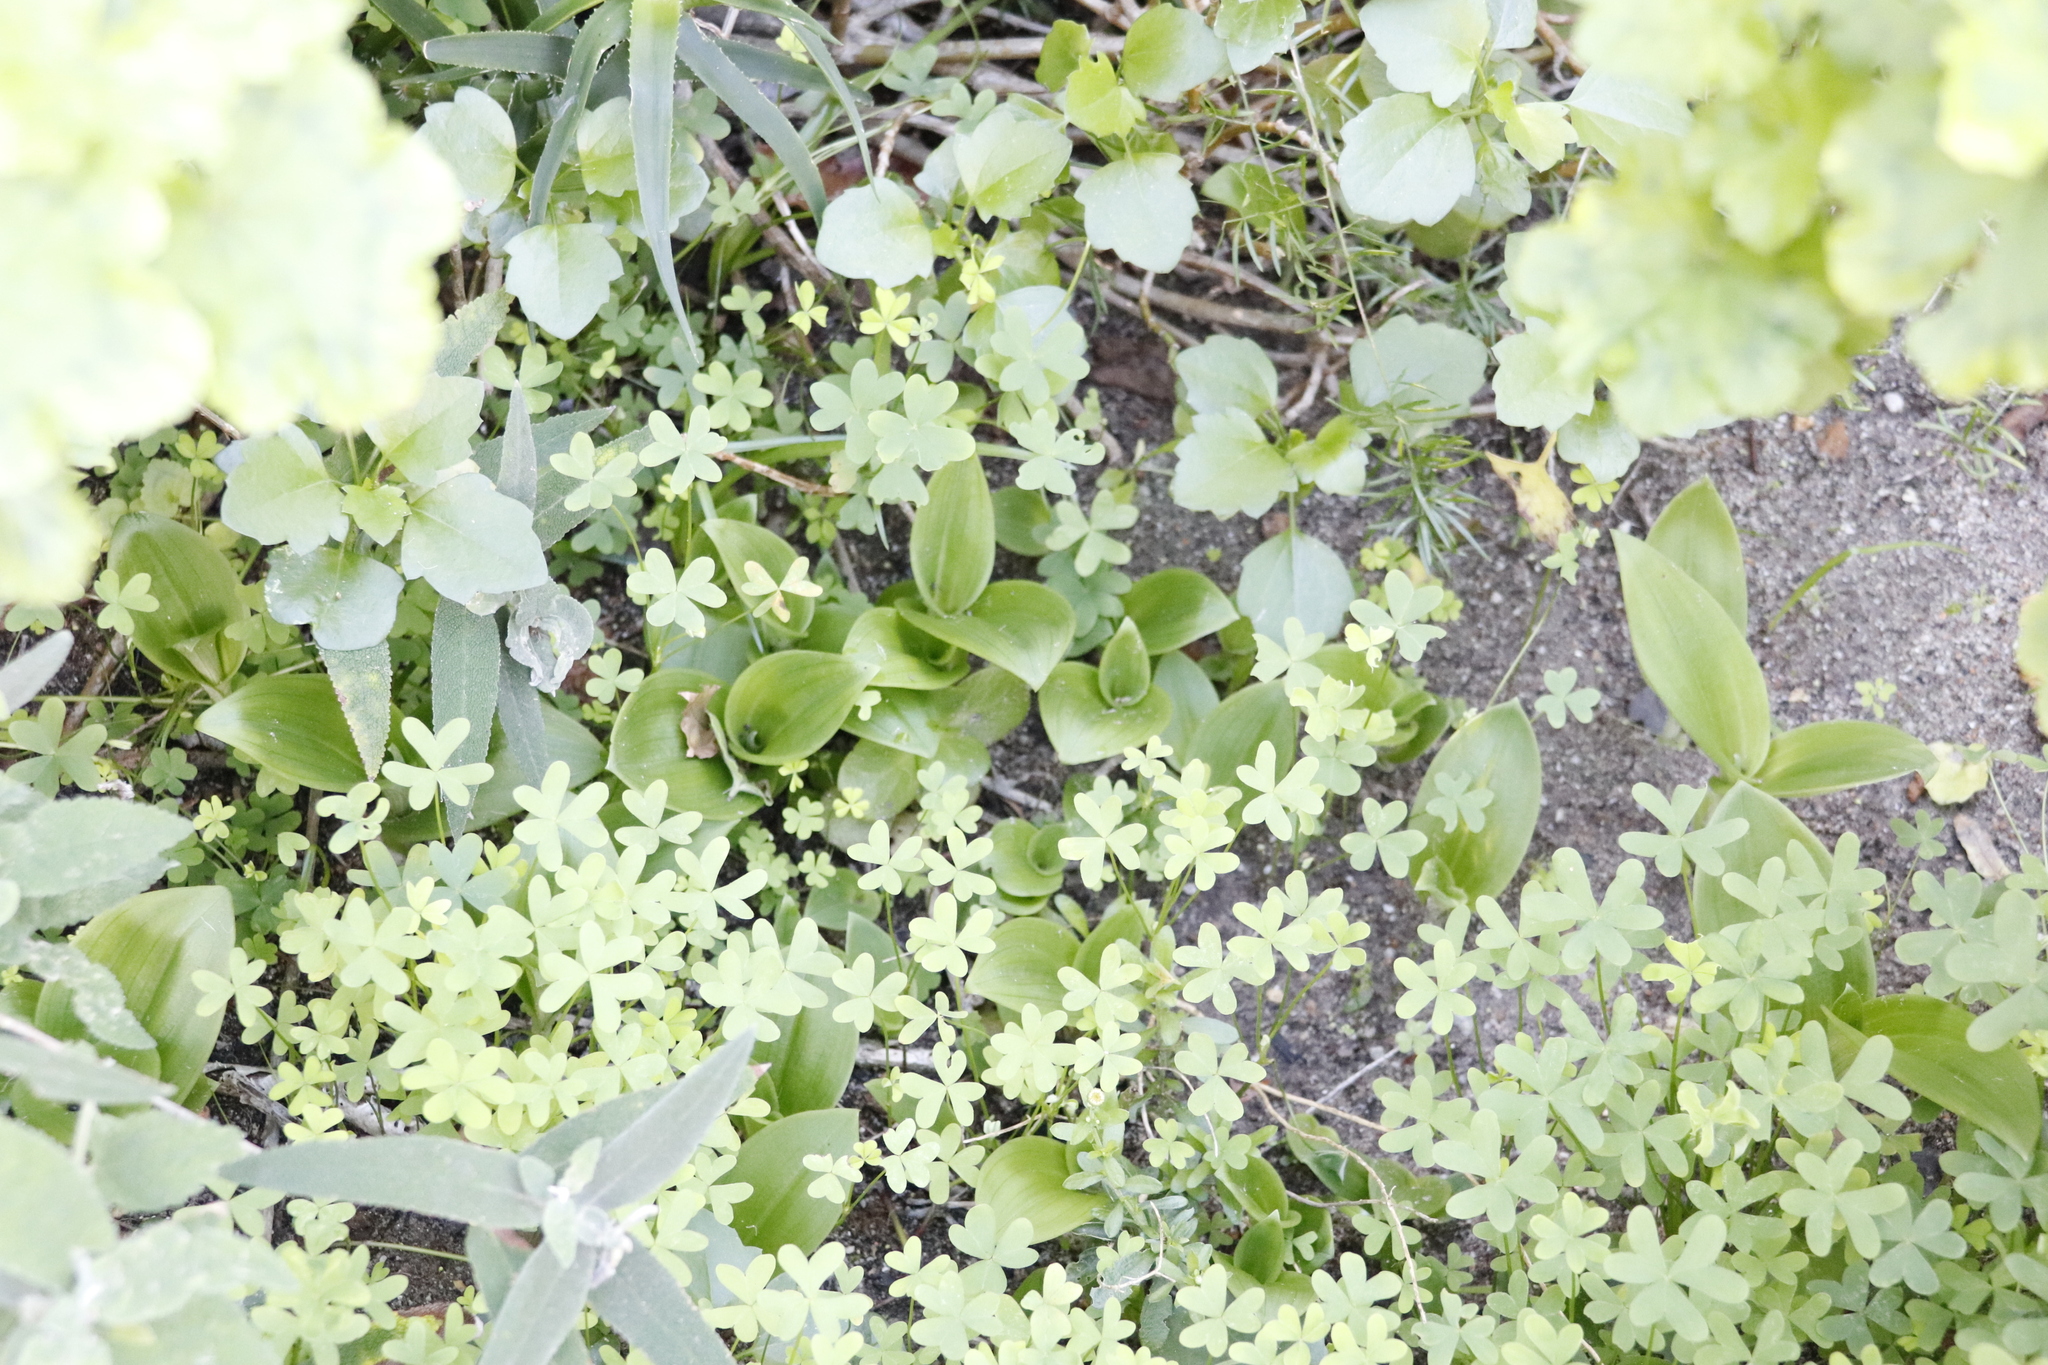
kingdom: Plantae
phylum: Tracheophyta
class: Liliopsida
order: Asparagales
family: Orchidaceae
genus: Satyrium
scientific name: Satyrium odorum
